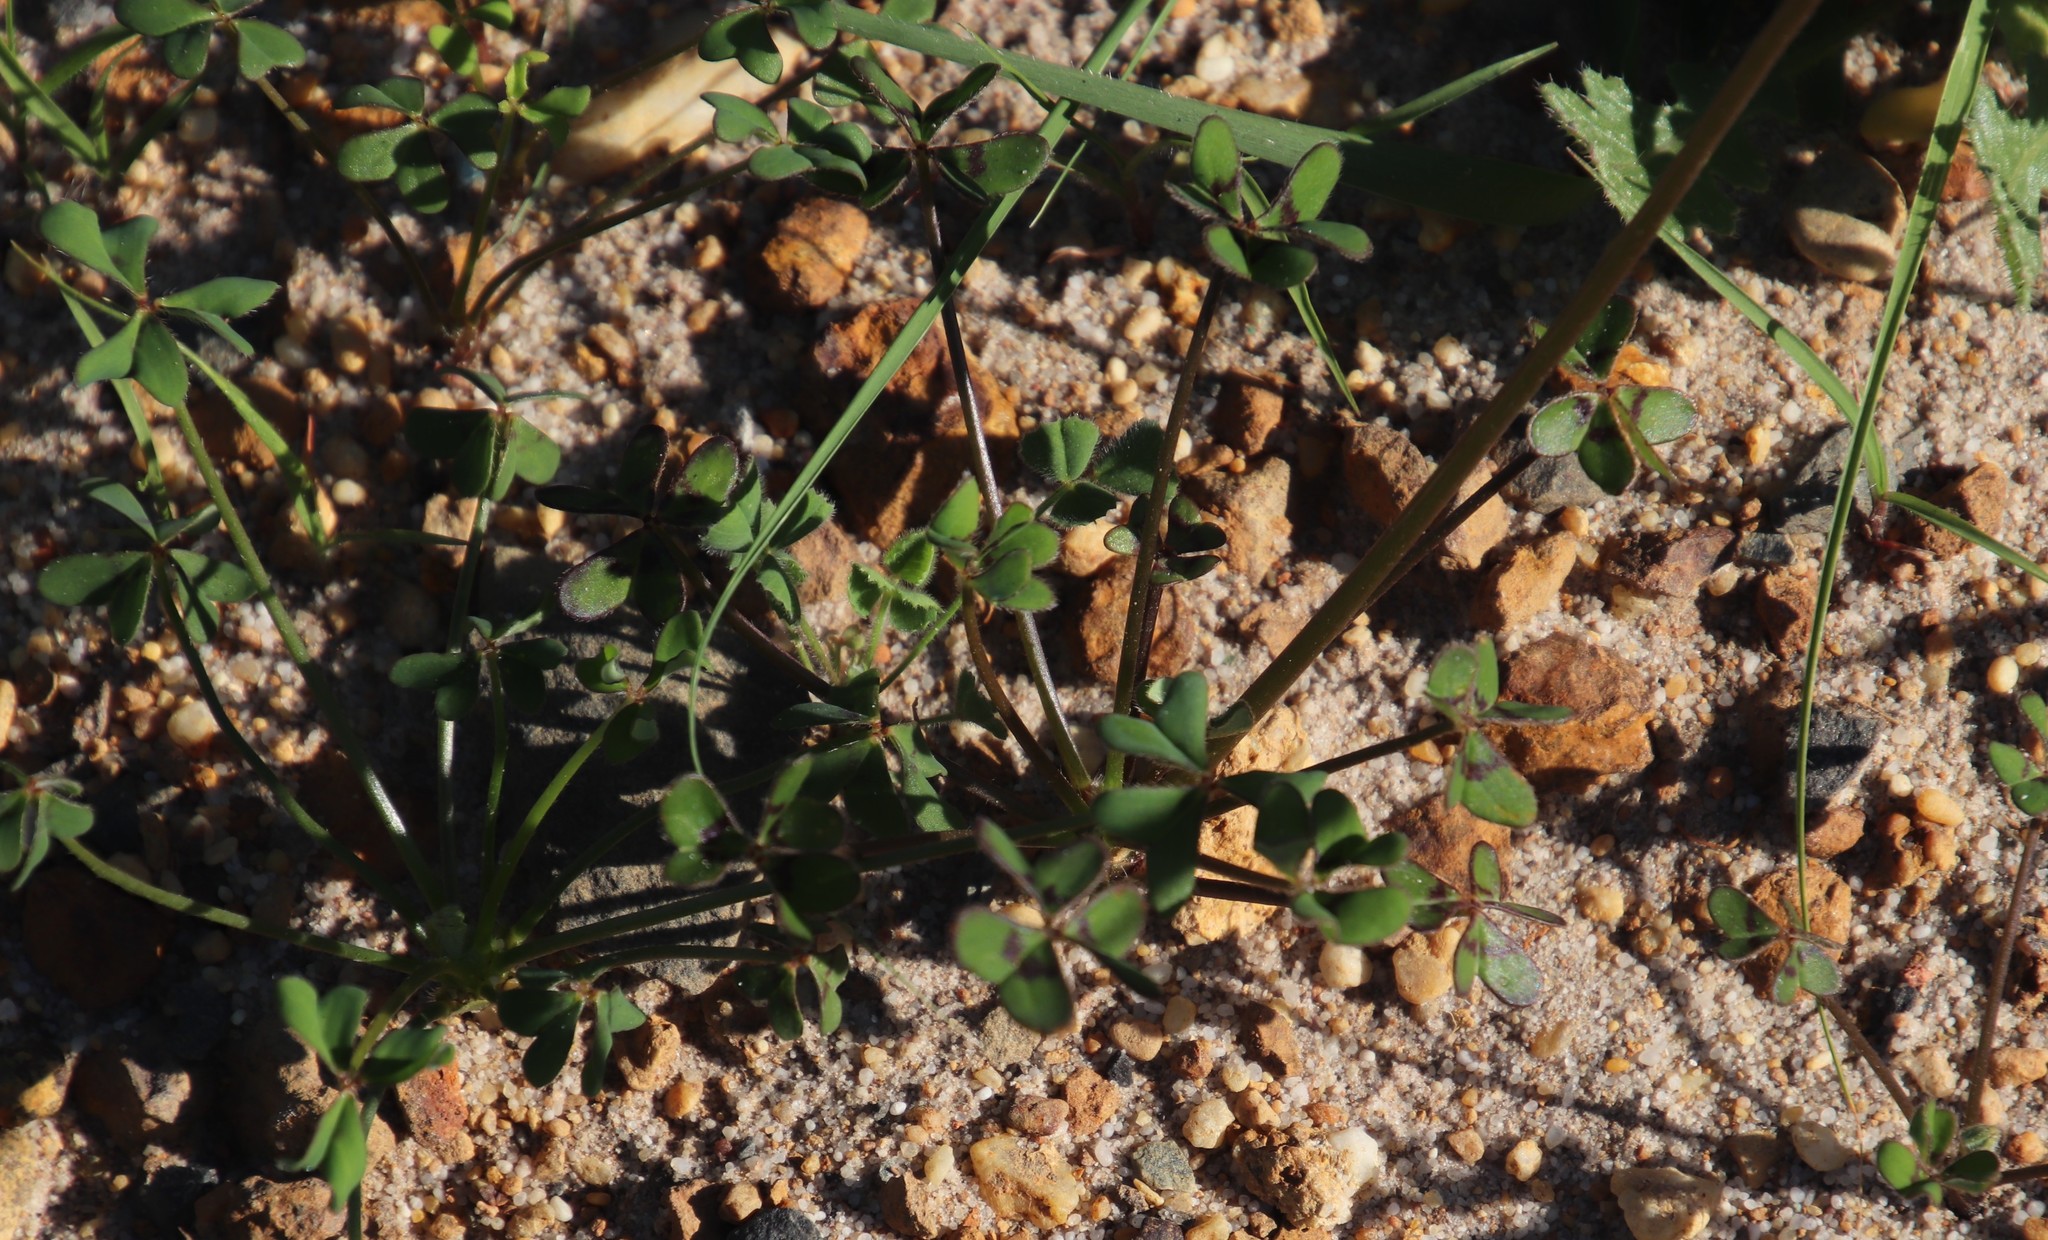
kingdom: Plantae
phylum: Tracheophyta
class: Magnoliopsida
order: Oxalidales
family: Oxalidaceae
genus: Oxalis
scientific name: Oxalis pes-caprae
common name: Bermuda-buttercup
